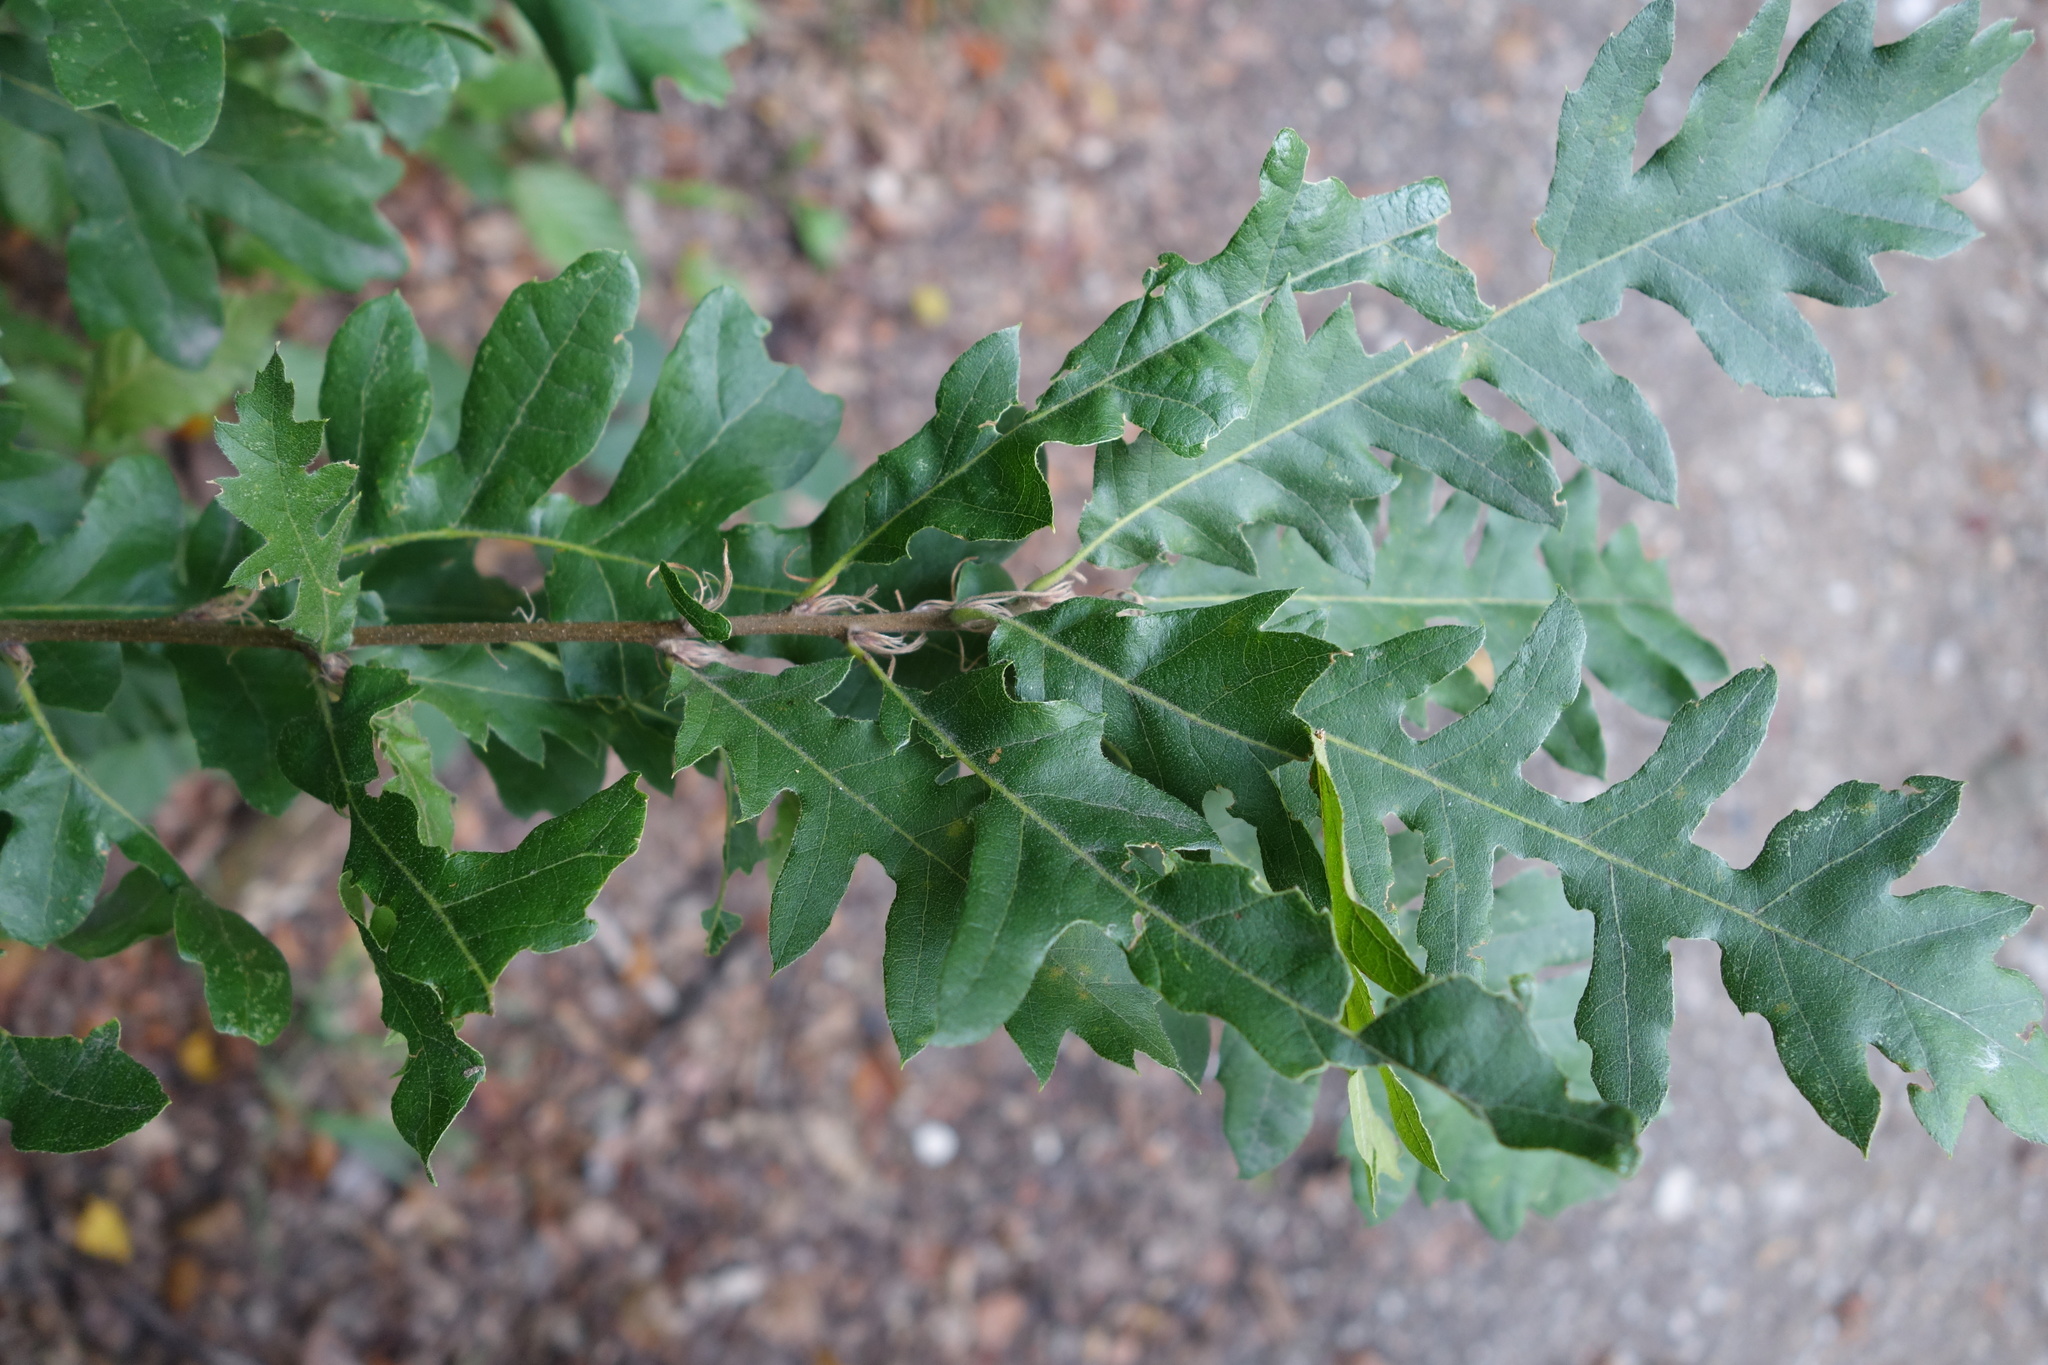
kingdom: Plantae
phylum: Tracheophyta
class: Magnoliopsida
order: Fagales
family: Fagaceae
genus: Quercus
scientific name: Quercus cerris
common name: Turkey oak
